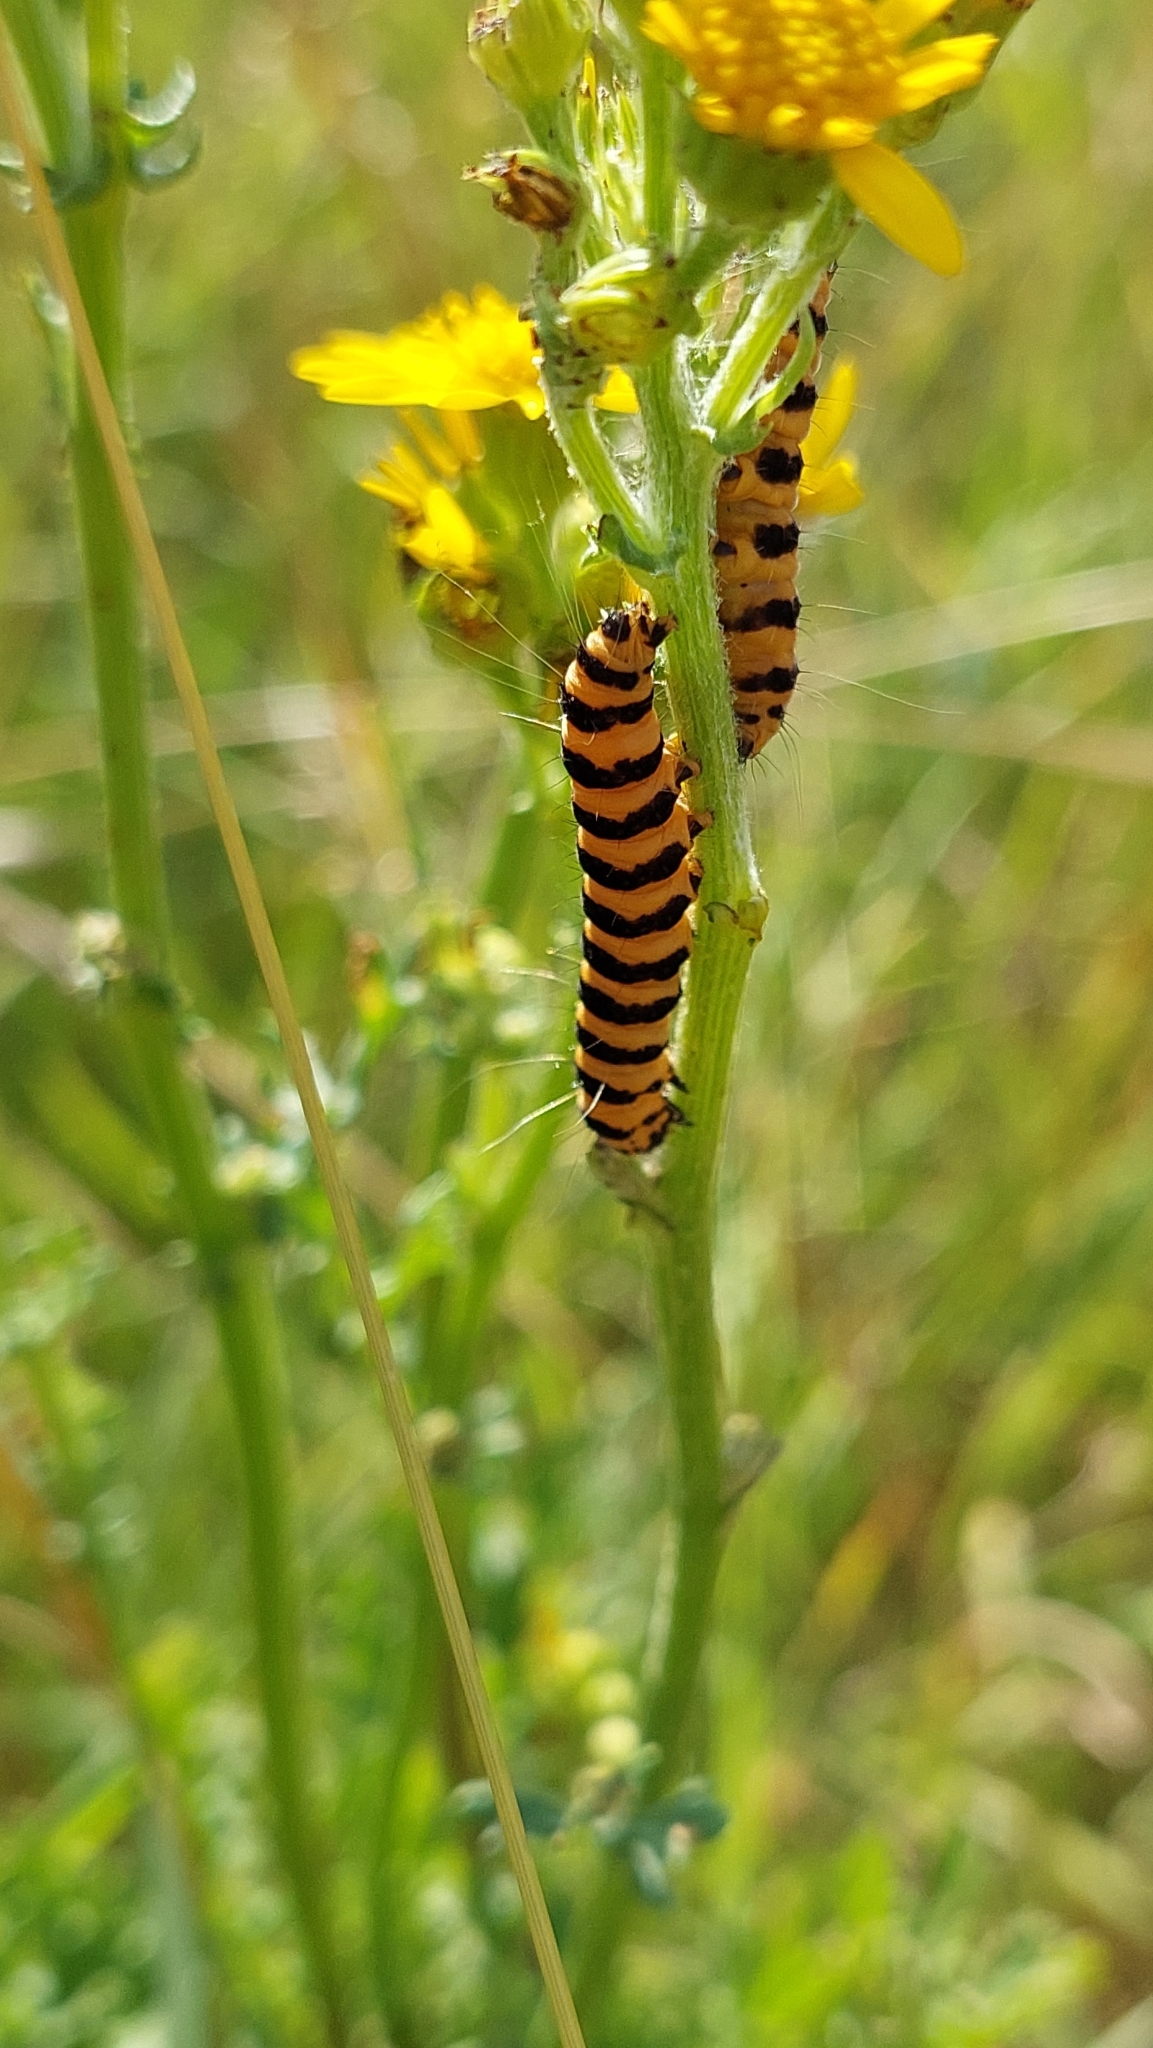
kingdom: Animalia
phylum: Arthropoda
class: Insecta
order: Lepidoptera
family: Erebidae
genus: Tyria
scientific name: Tyria jacobaeae
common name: Cinnabar
